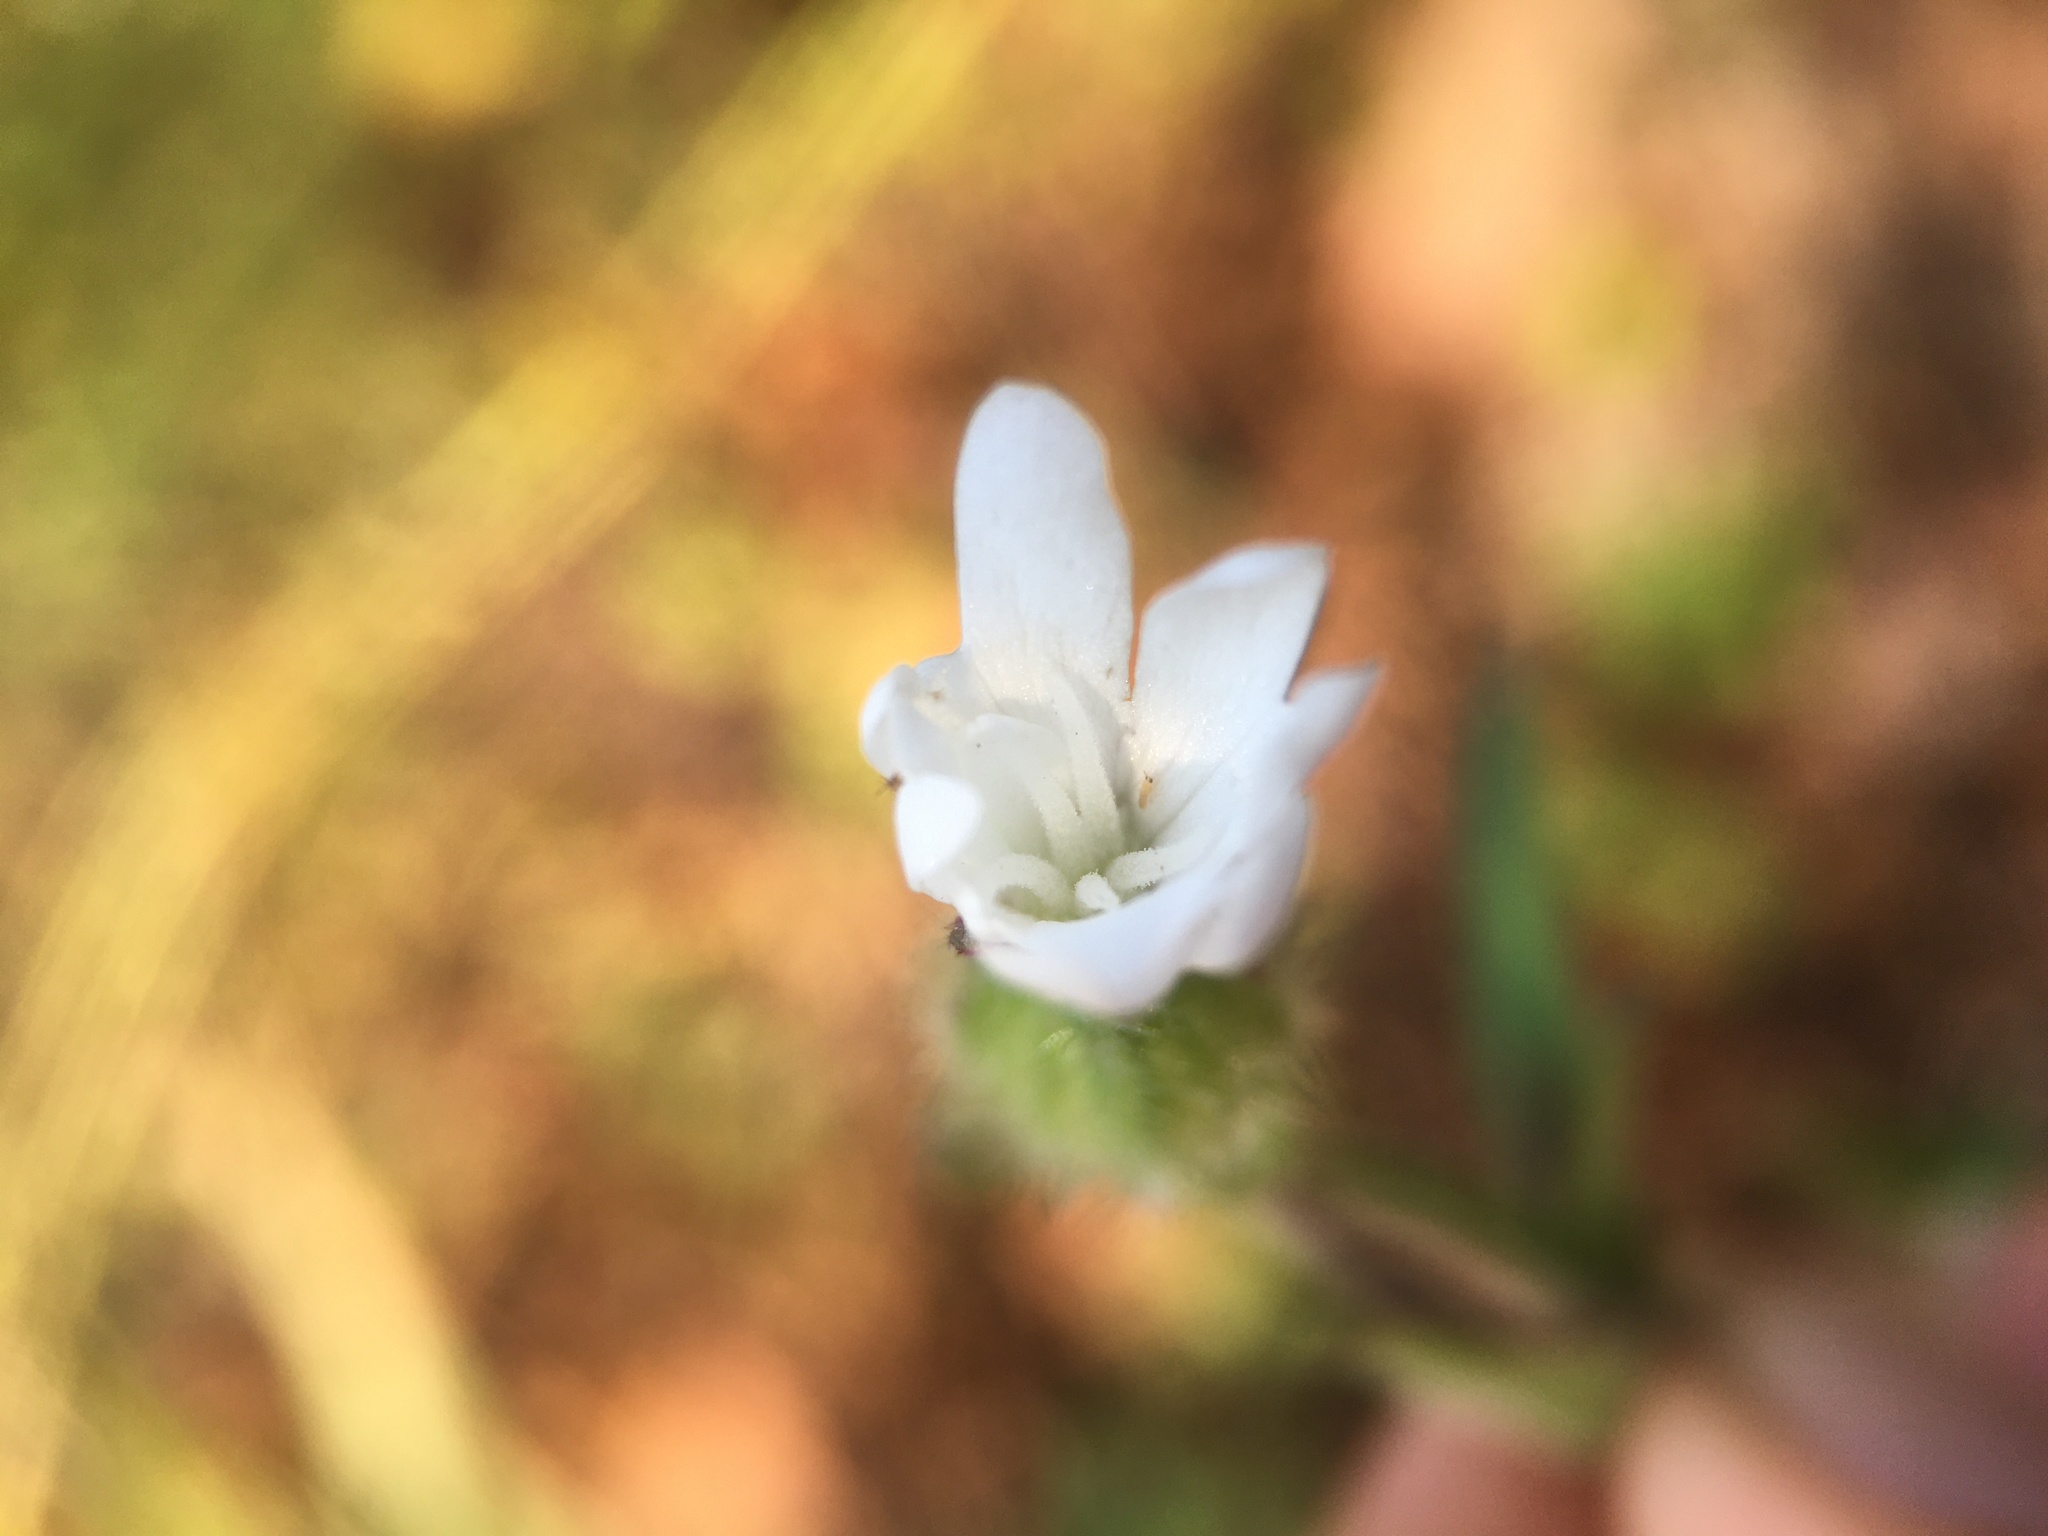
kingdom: Plantae
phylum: Tracheophyta
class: Magnoliopsida
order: Caryophyllales
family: Caryophyllaceae
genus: Silene
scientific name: Silene latifolia
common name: White campion
